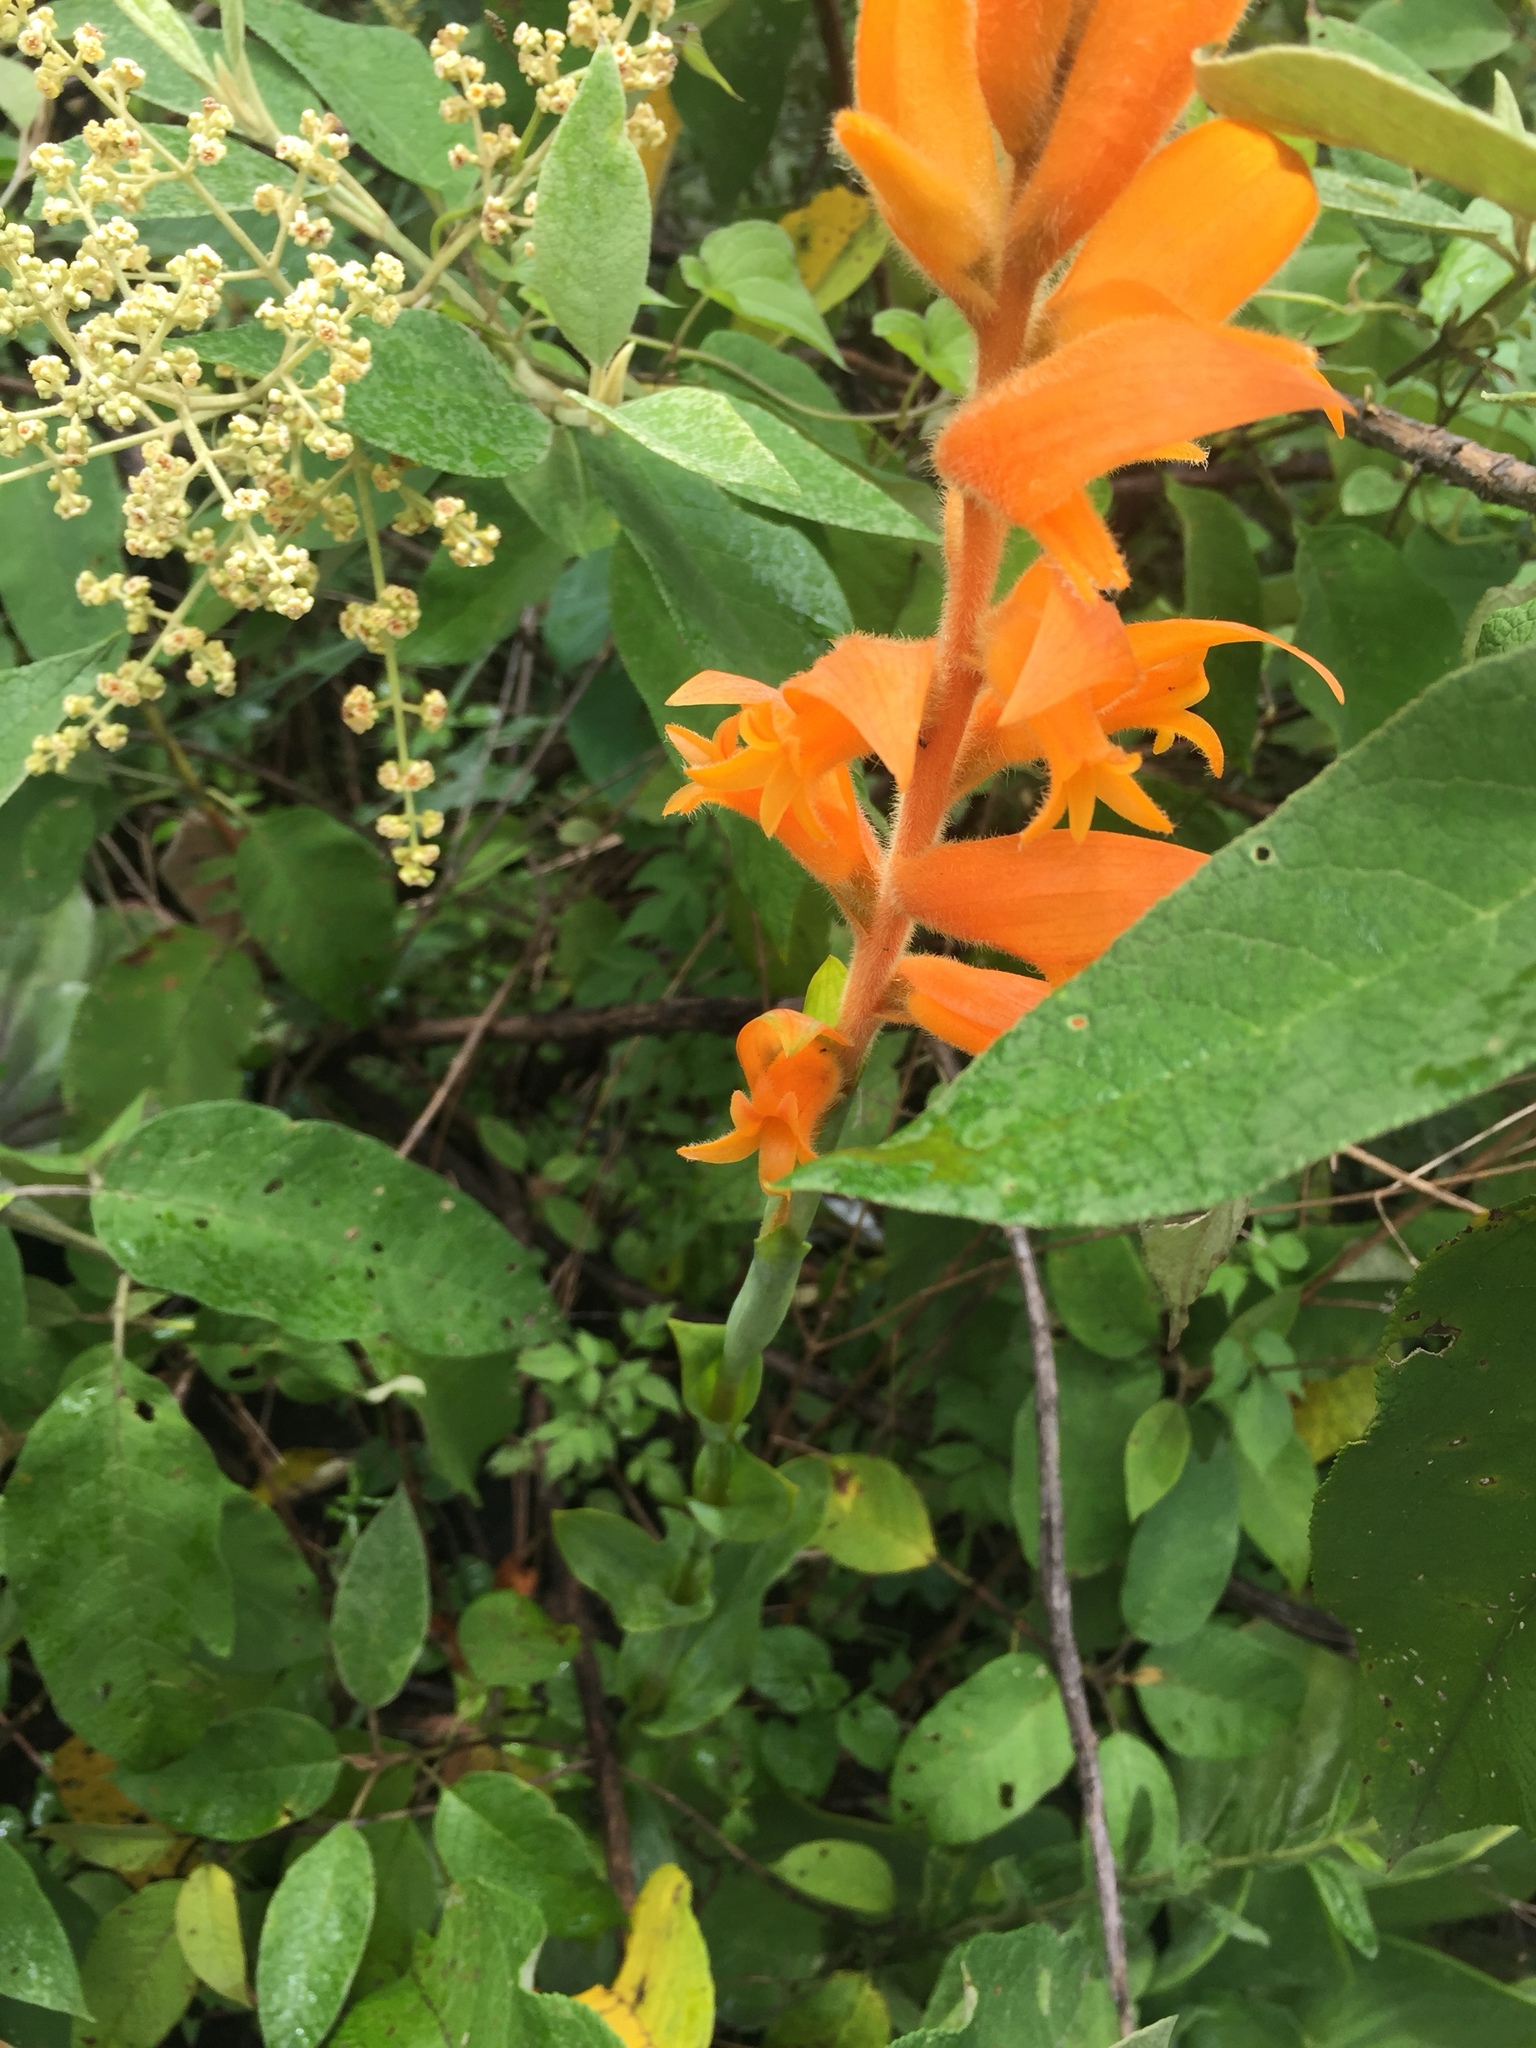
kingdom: Plantae
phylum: Tracheophyta
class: Liliopsida
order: Asparagales
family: Orchidaceae
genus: Dichromanthus
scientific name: Dichromanthus aurantiacus
